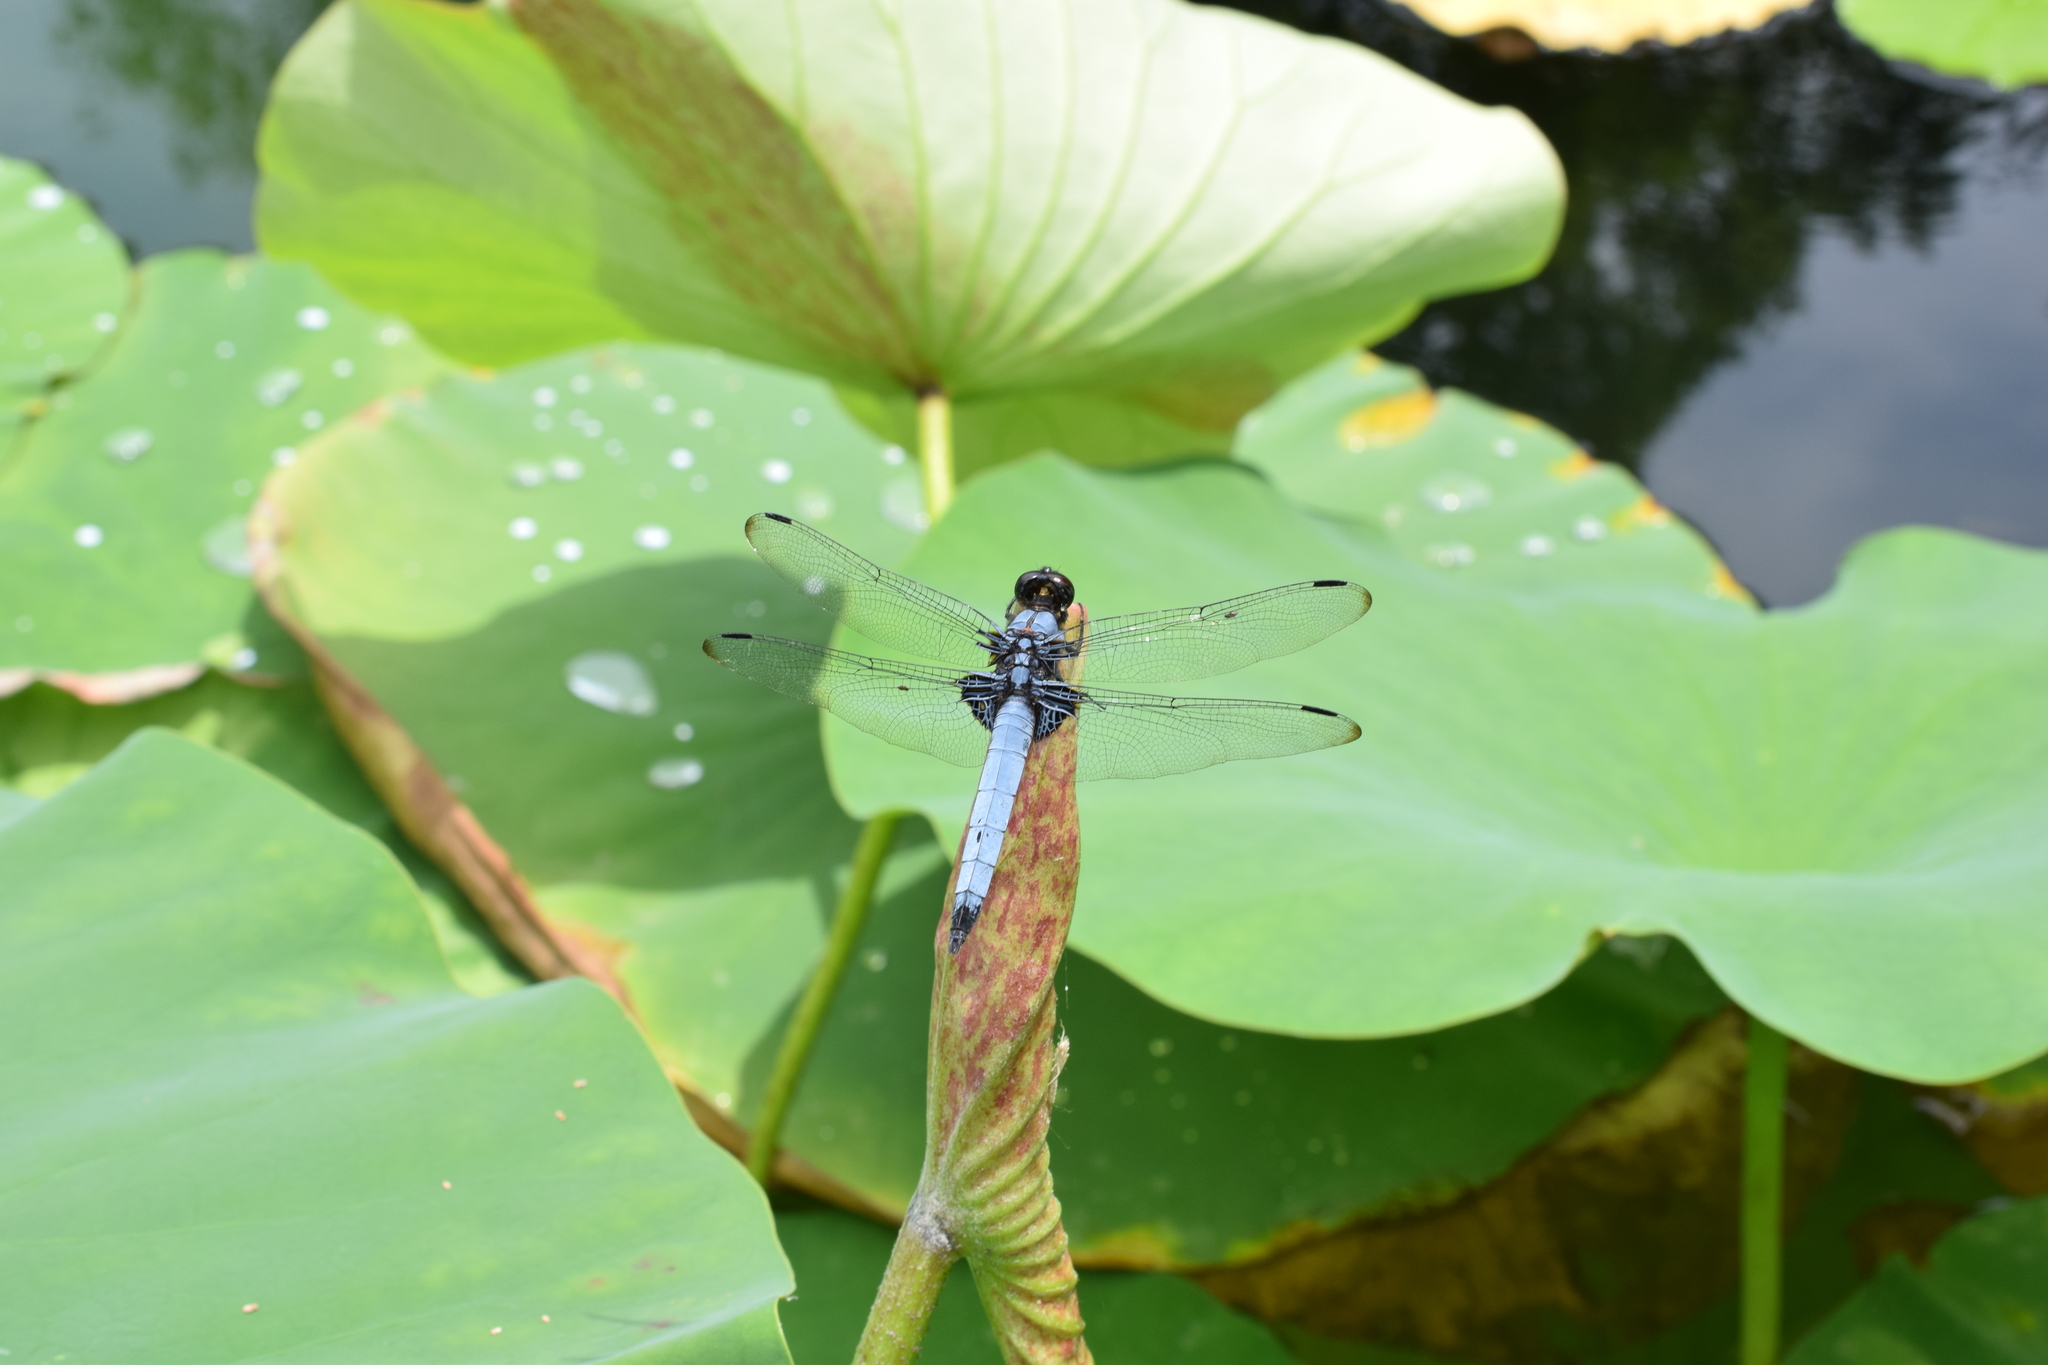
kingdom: Animalia
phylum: Arthropoda
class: Insecta
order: Odonata
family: Libellulidae
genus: Orthetrum
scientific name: Orthetrum melania
